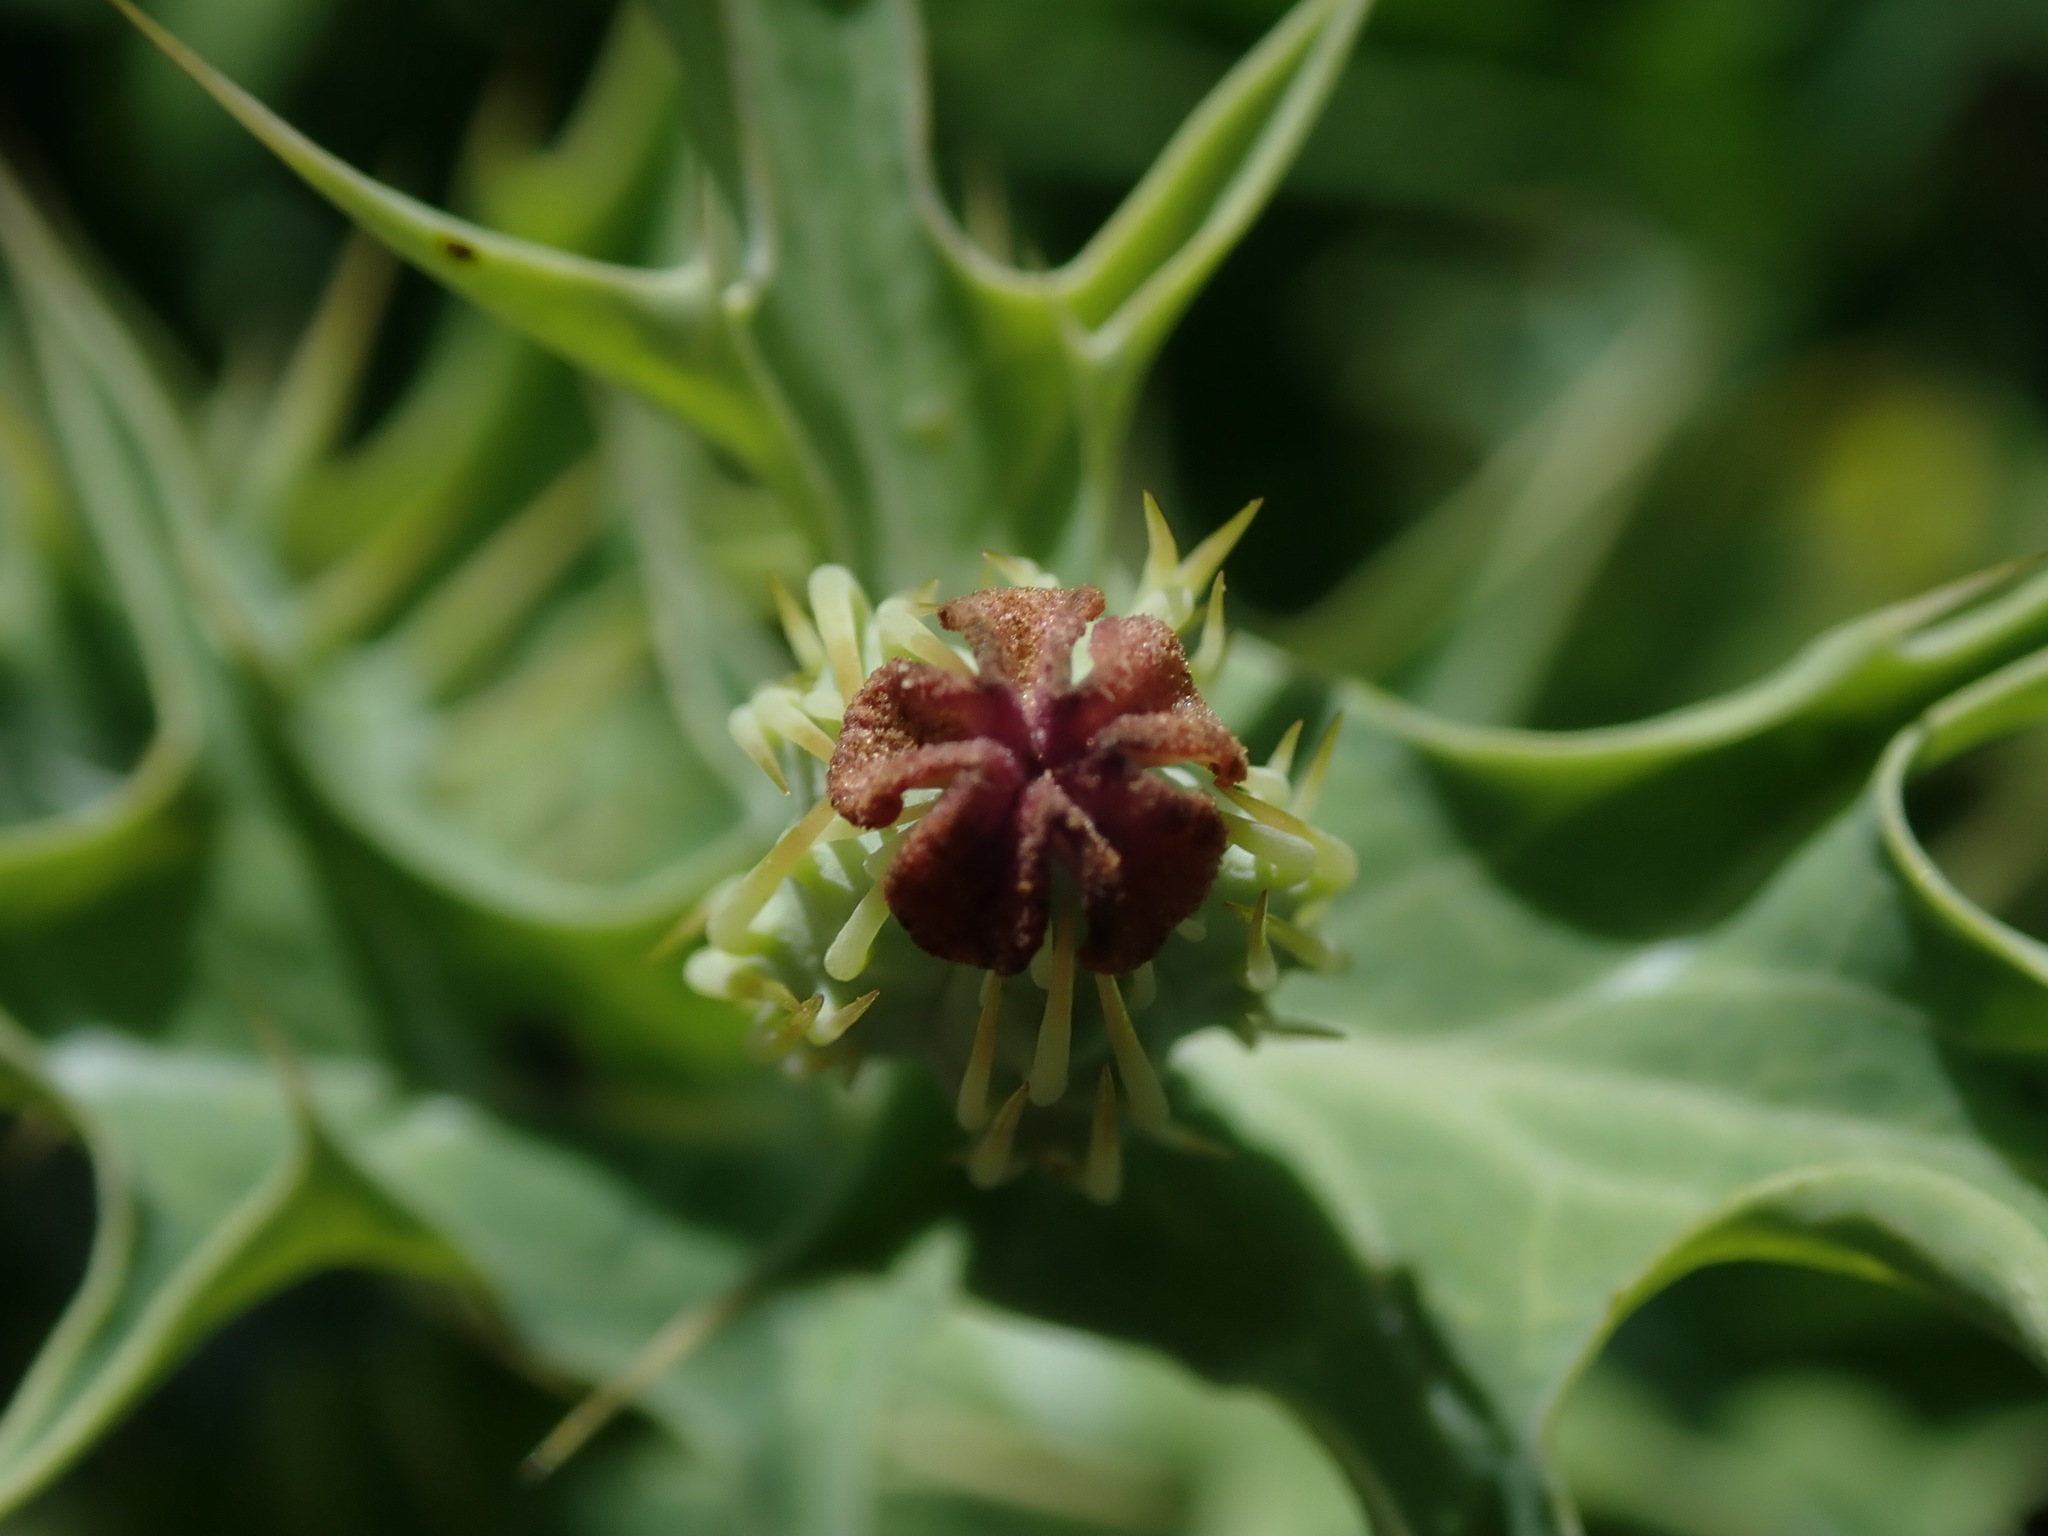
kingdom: Plantae
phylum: Tracheophyta
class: Magnoliopsida
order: Ranunculales
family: Papaveraceae
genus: Argemone
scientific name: Argemone mexicana
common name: Mexican poppy
